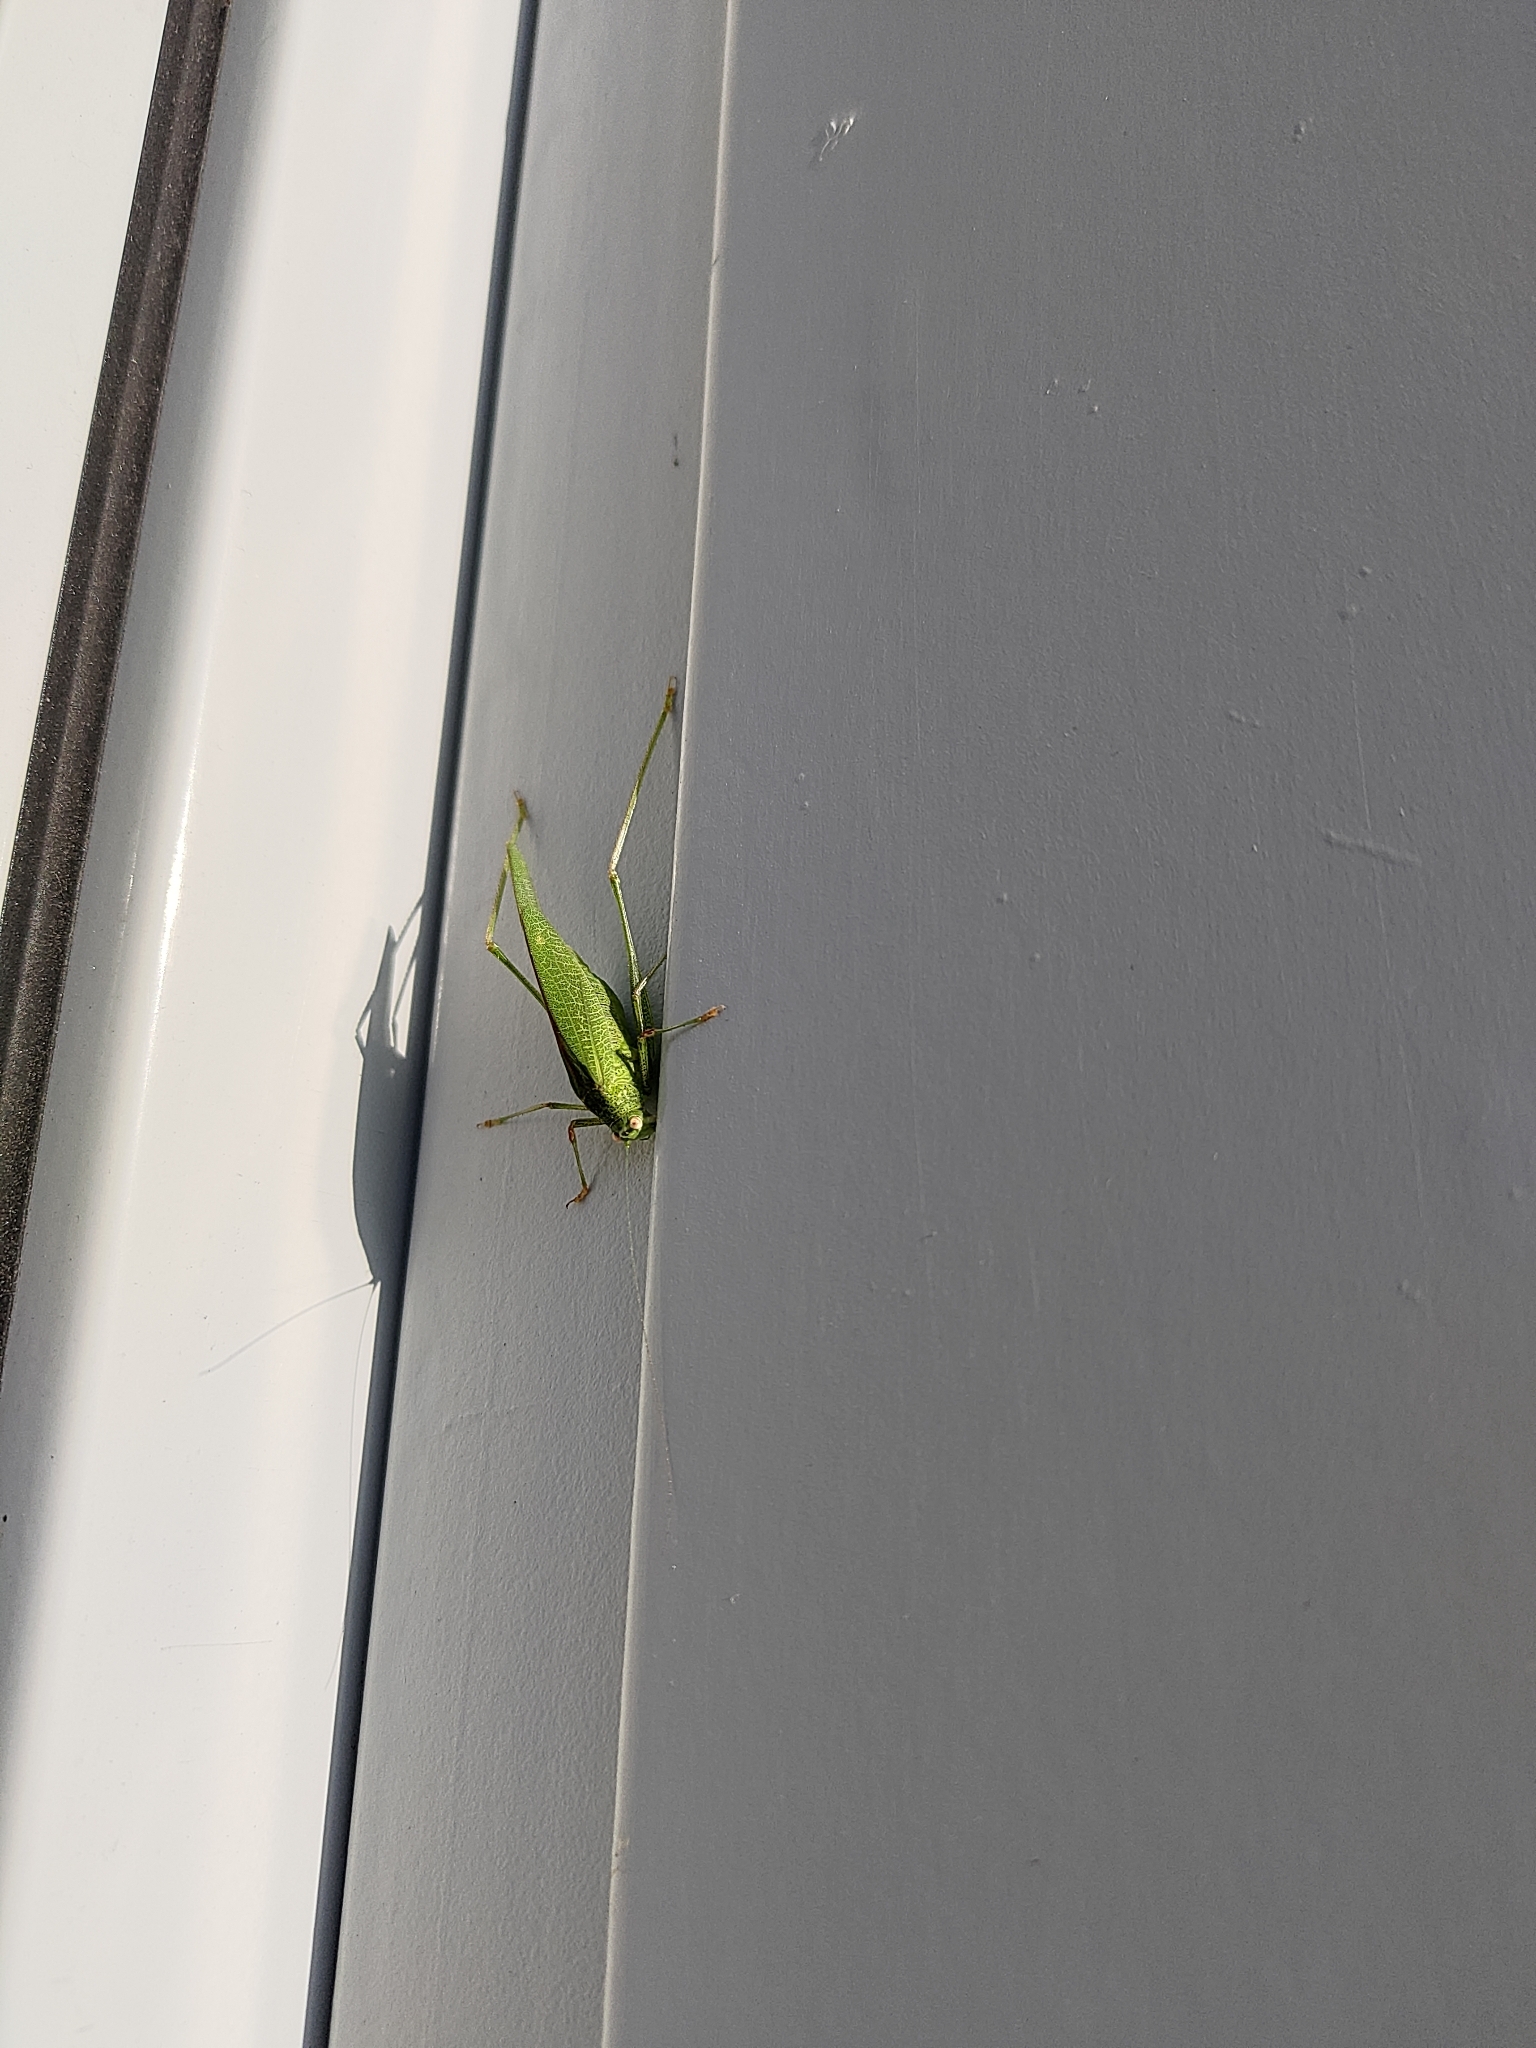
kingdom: Animalia
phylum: Arthropoda
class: Insecta
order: Orthoptera
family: Tettigoniidae
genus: Phaneroptera
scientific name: Phaneroptera nana
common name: Southern sickle bush-cricket
